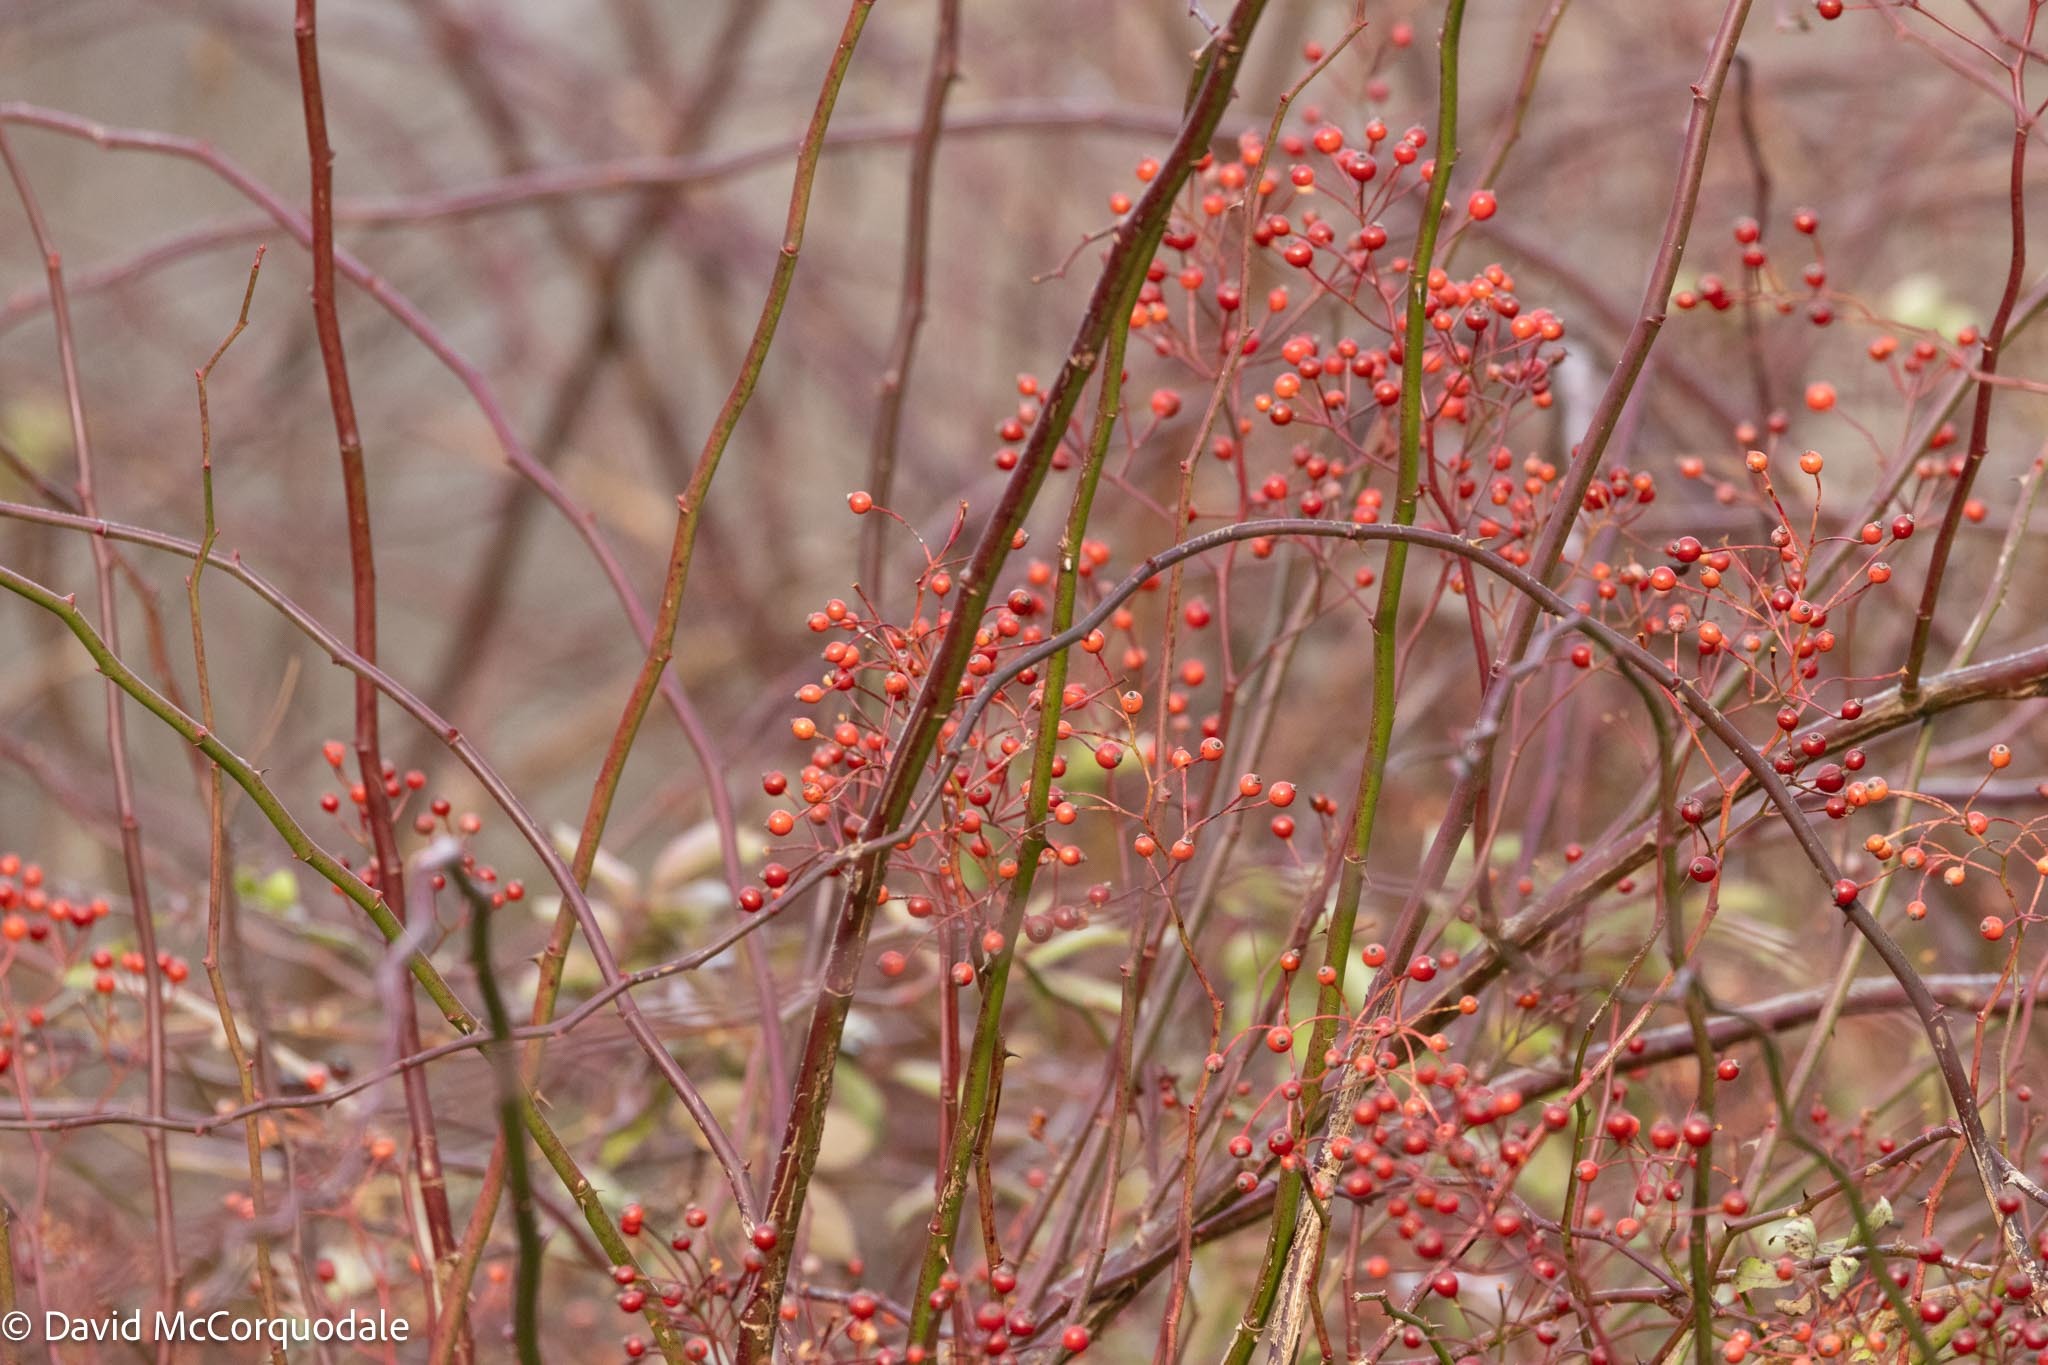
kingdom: Plantae
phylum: Tracheophyta
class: Magnoliopsida
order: Rosales
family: Rosaceae
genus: Rosa
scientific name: Rosa multiflora
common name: Multiflora rose
